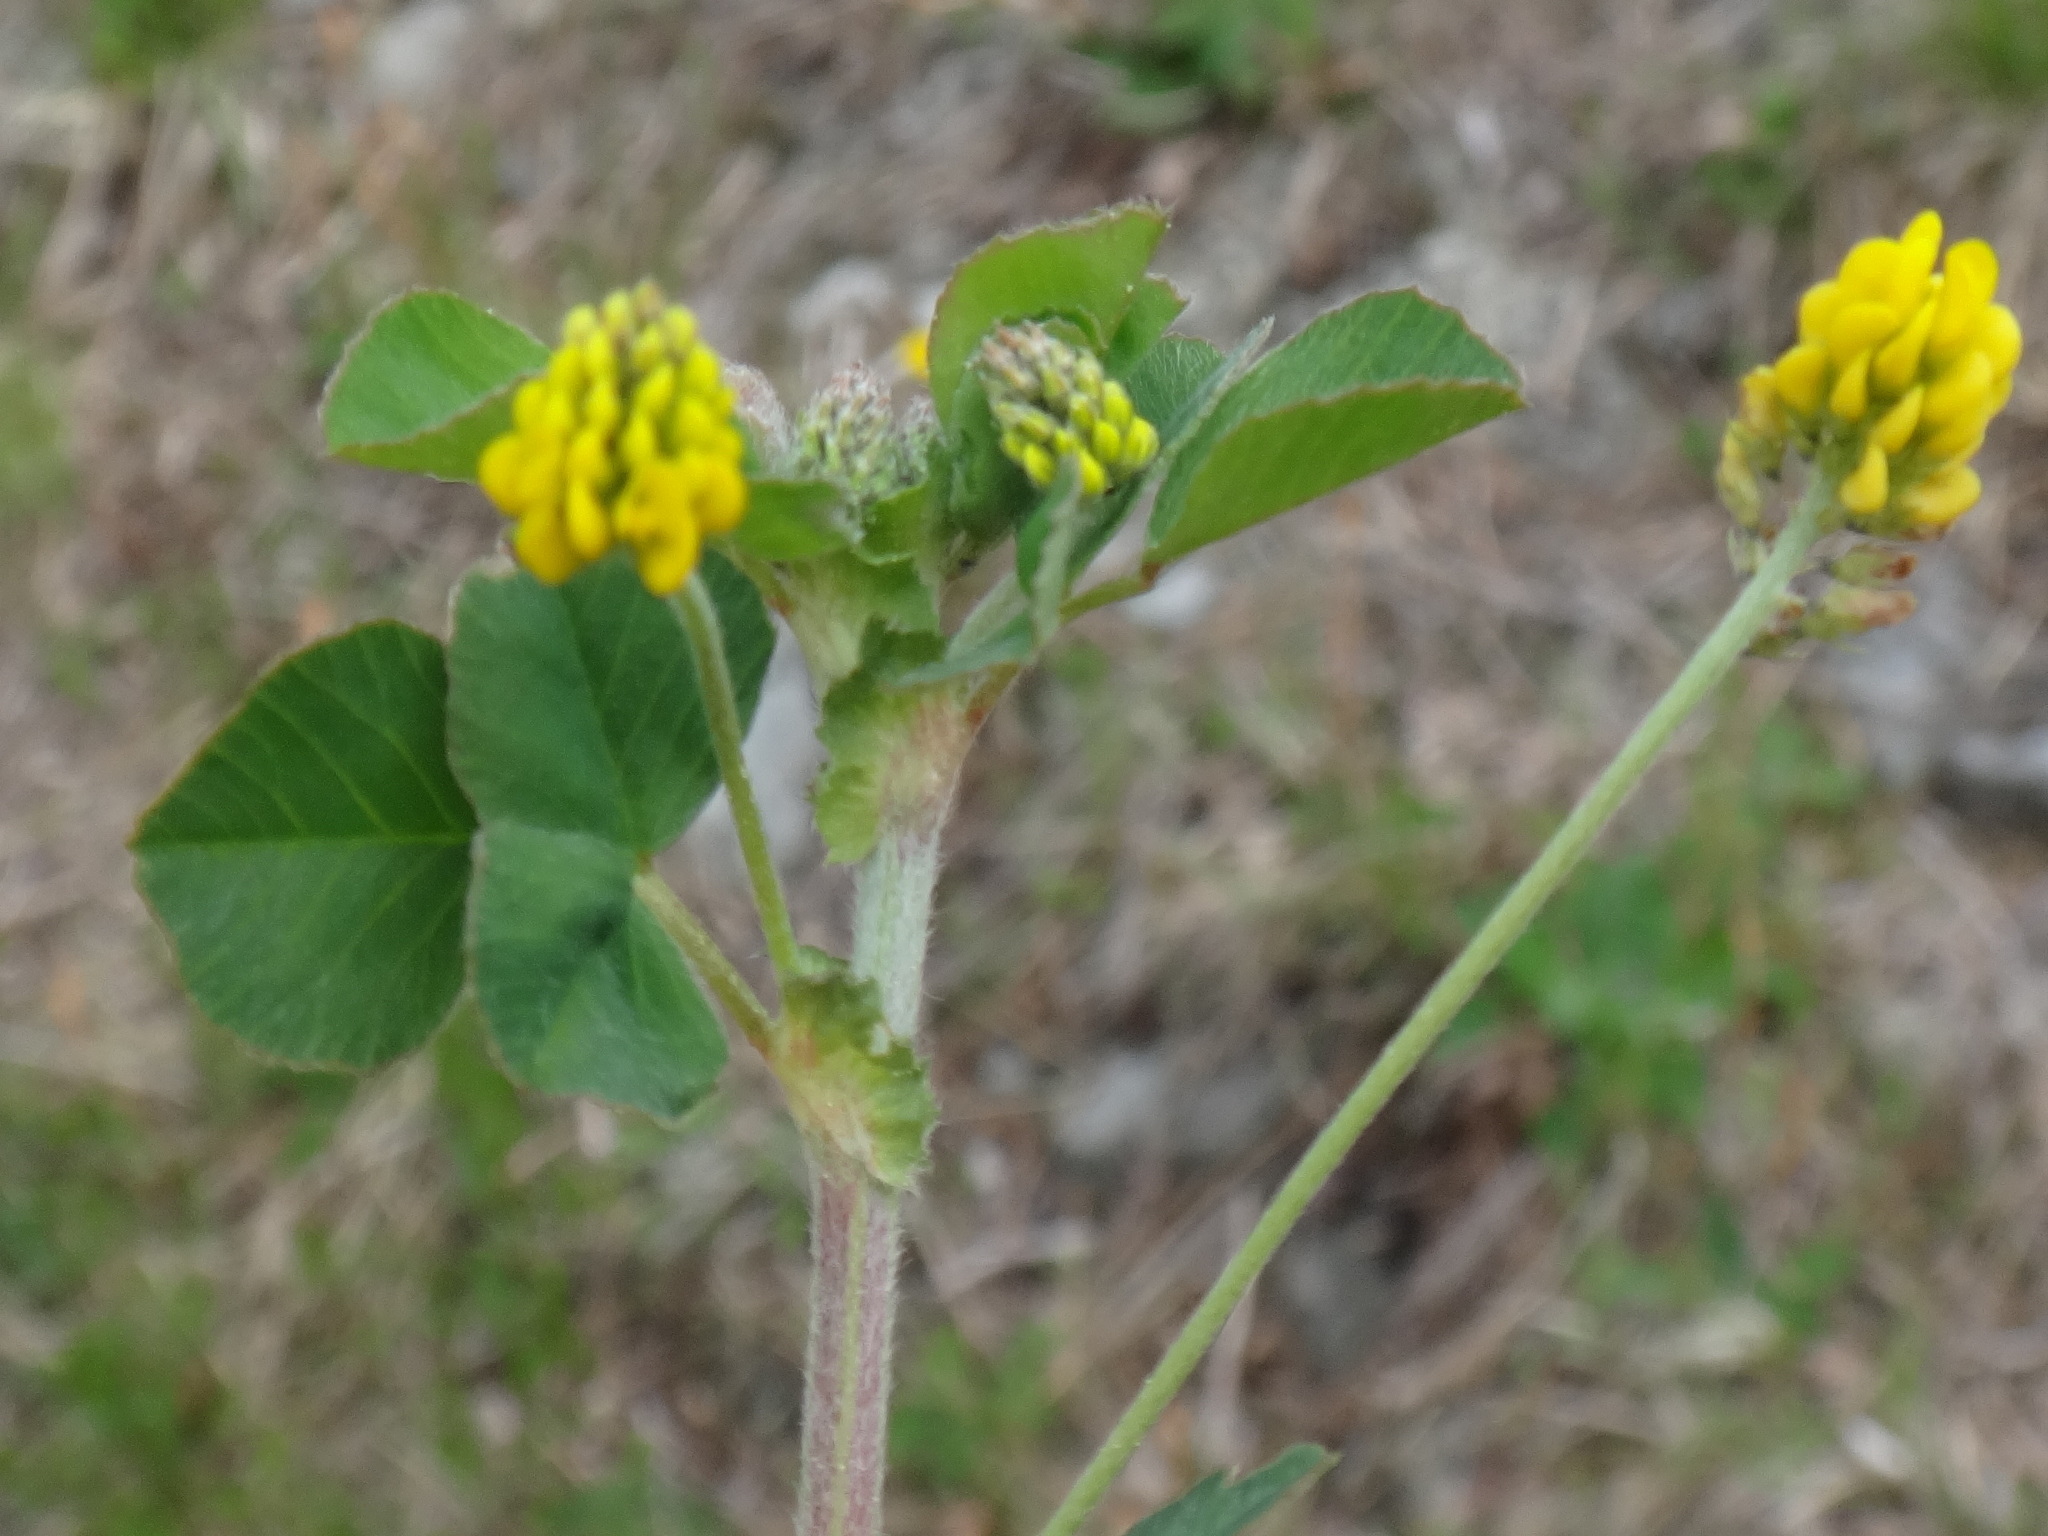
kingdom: Plantae
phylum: Tracheophyta
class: Magnoliopsida
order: Fabales
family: Fabaceae
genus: Medicago
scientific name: Medicago lupulina
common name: Black medick
